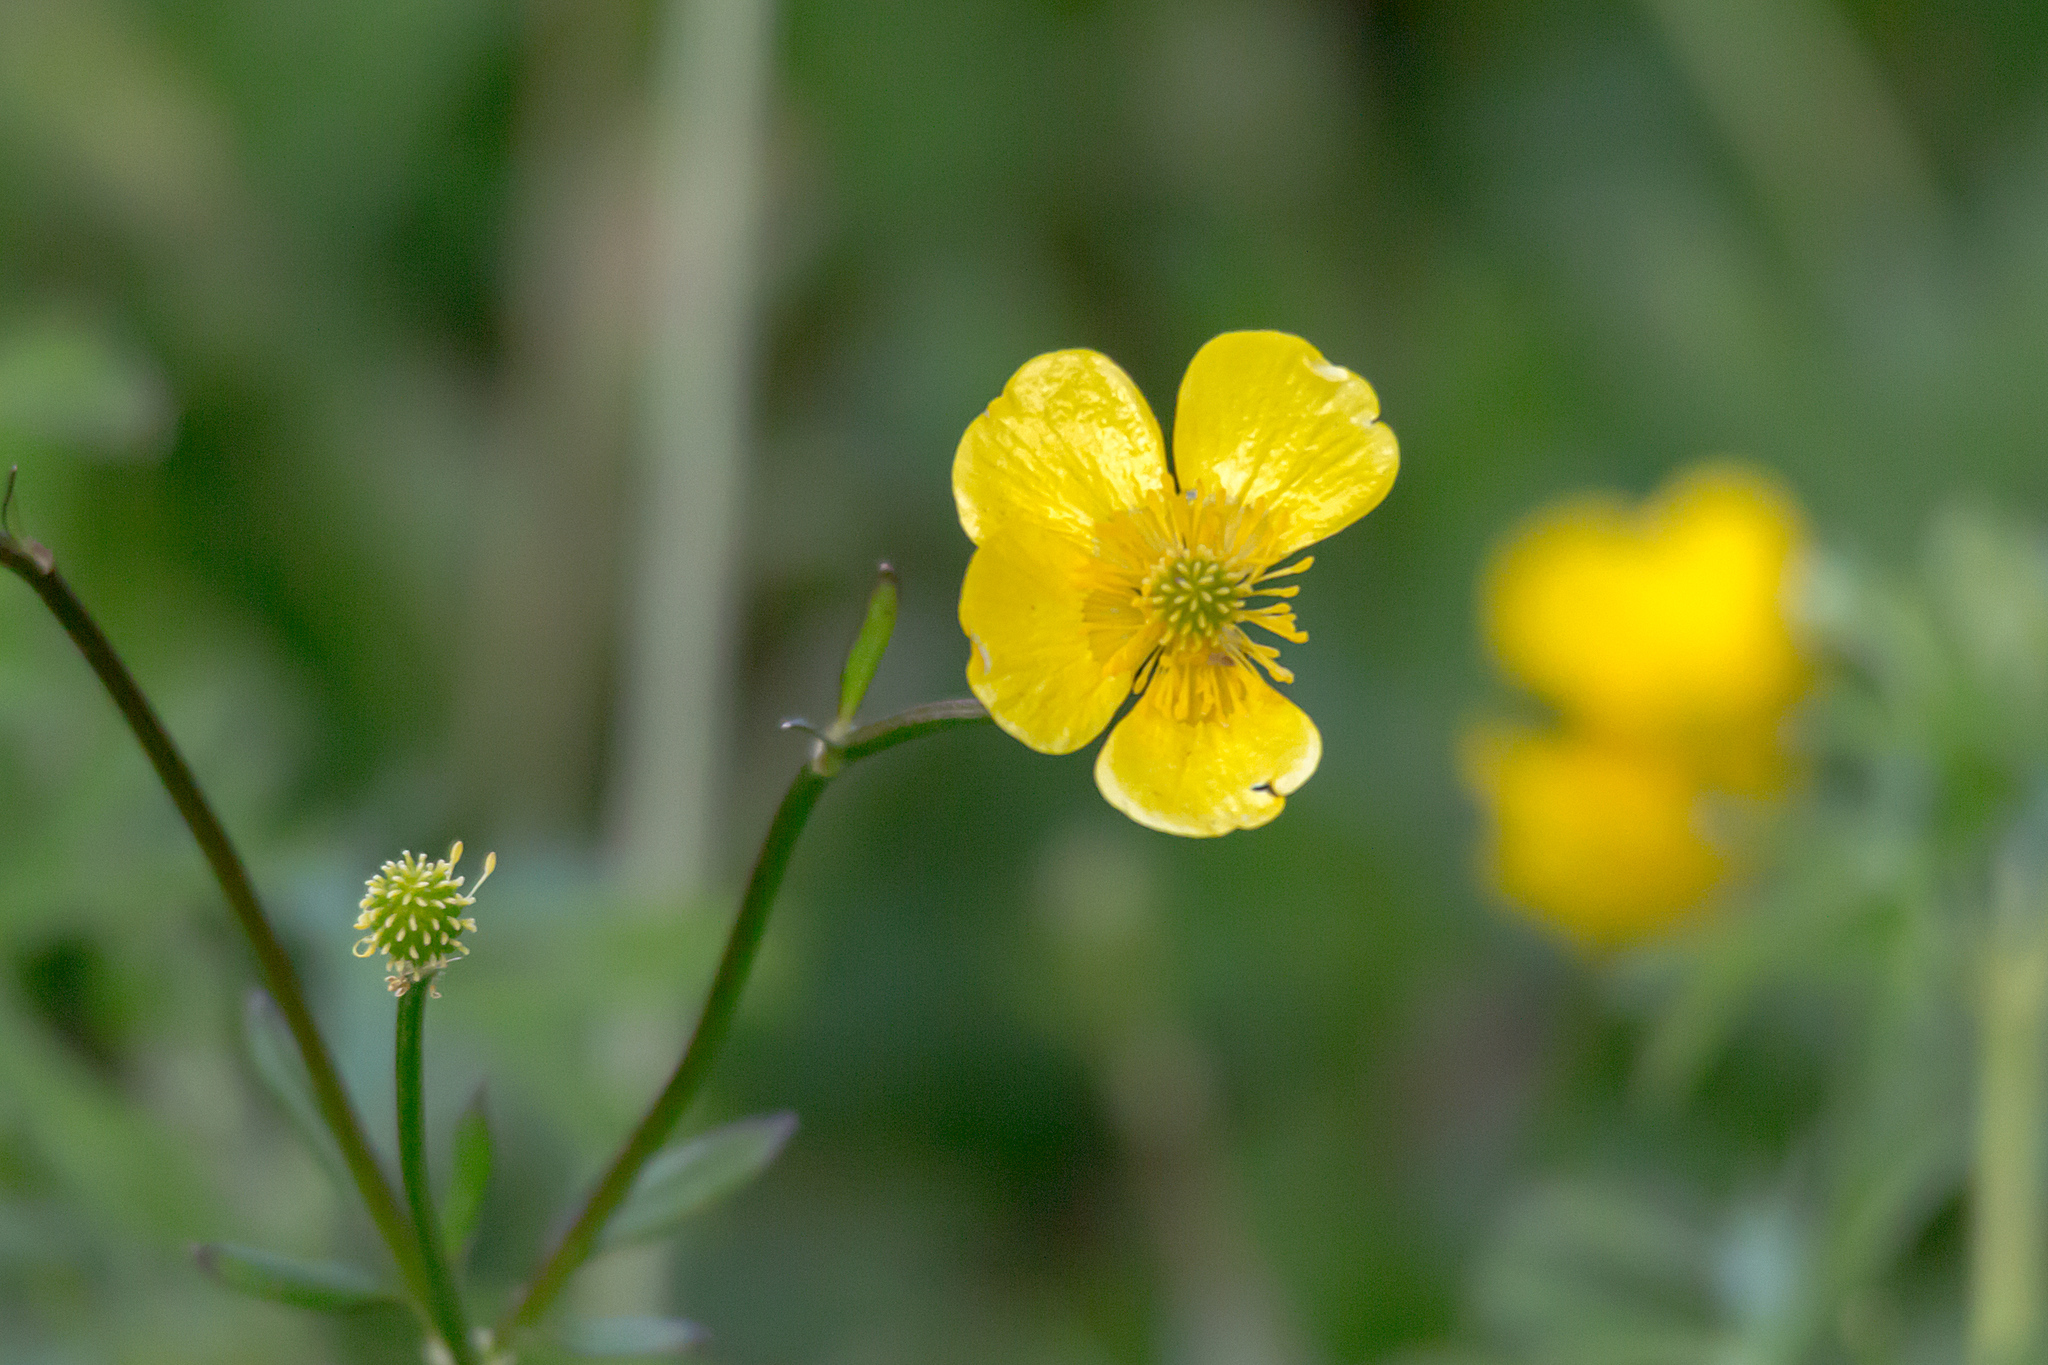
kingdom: Plantae
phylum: Tracheophyta
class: Magnoliopsida
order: Ranunculales
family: Ranunculaceae
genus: Ranunculus
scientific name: Ranunculus repens
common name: Creeping buttercup
